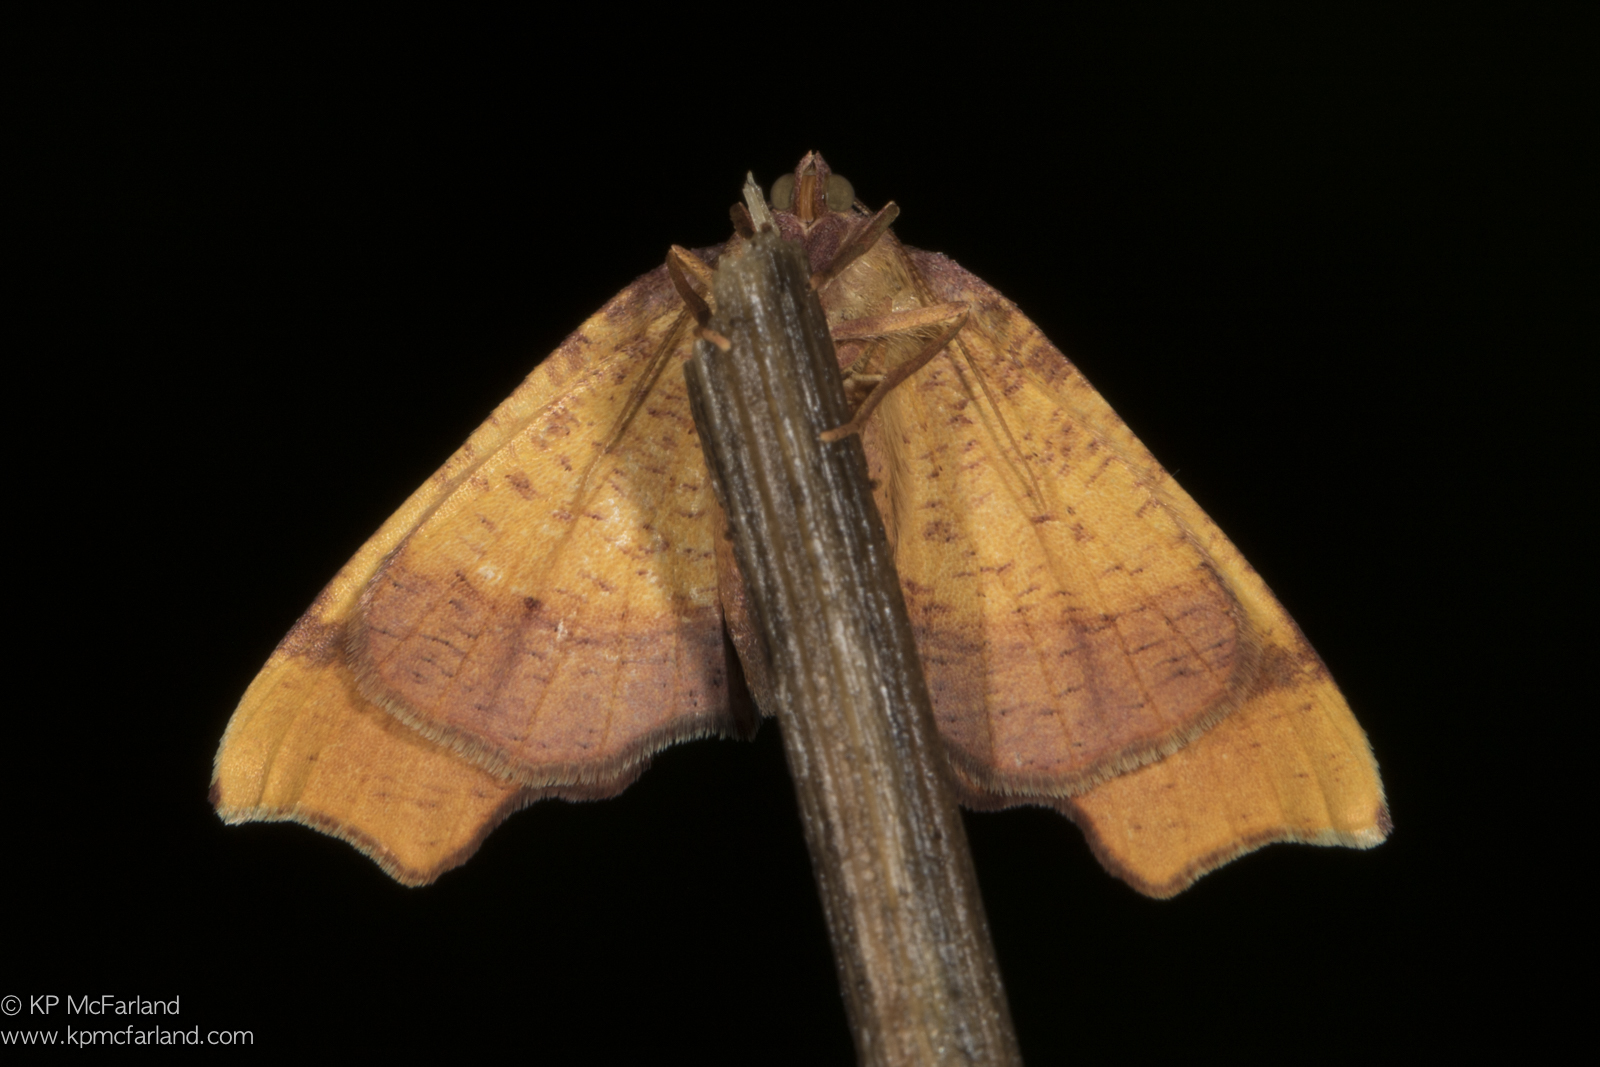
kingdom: Animalia
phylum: Arthropoda
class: Insecta
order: Lepidoptera
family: Geometridae
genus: Plagodis
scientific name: Plagodis phlogosaria
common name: Straight-lined plagodis
